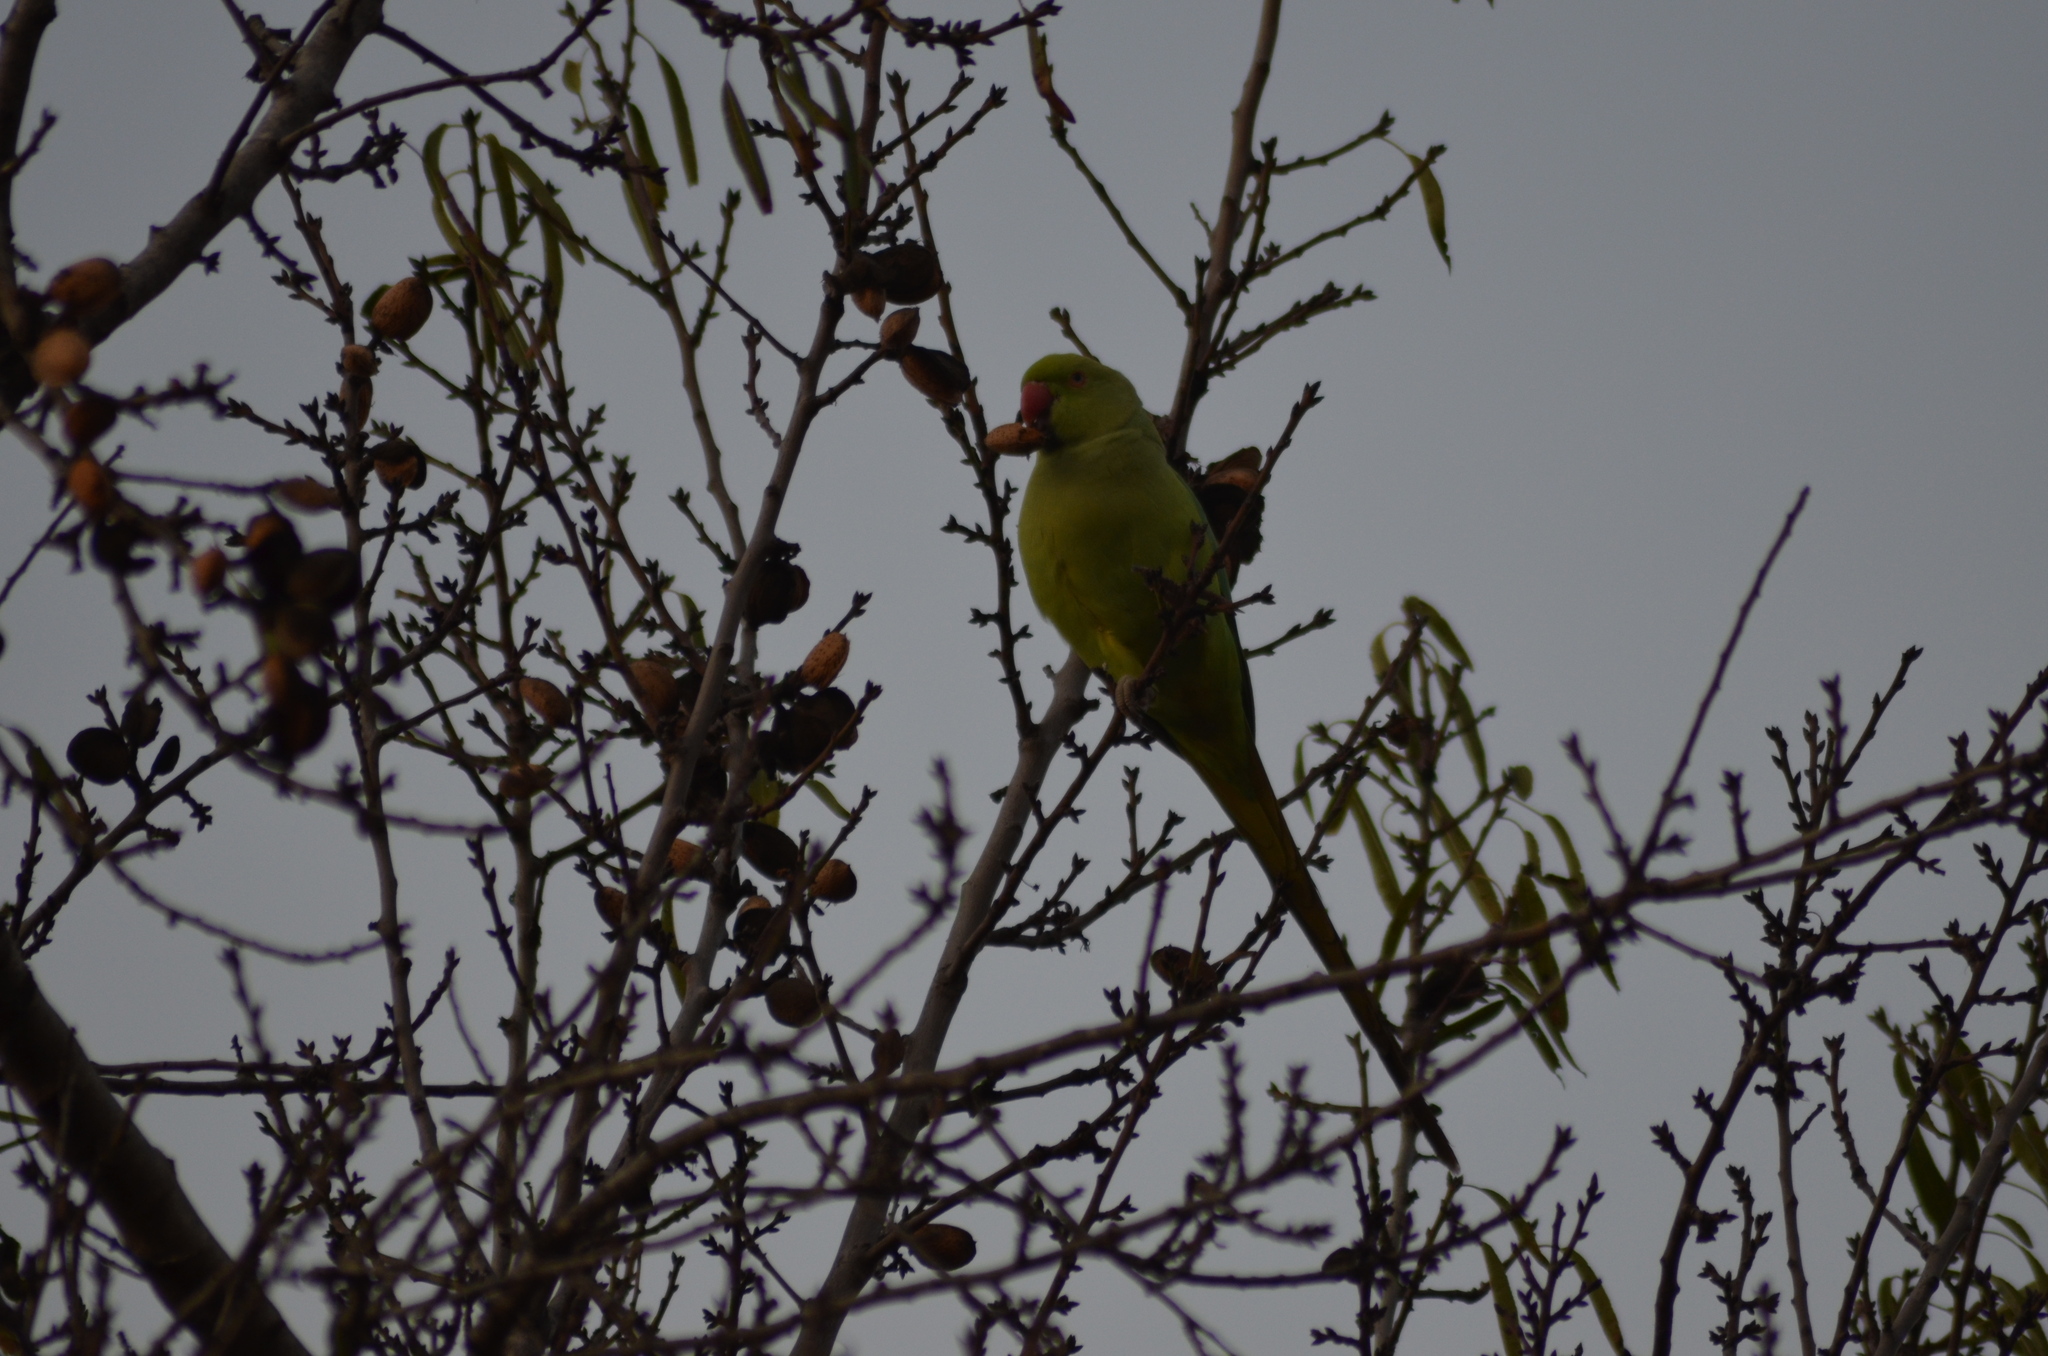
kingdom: Animalia
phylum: Chordata
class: Aves
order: Psittaciformes
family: Psittacidae
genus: Psittacula
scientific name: Psittacula krameri
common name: Rose-ringed parakeet
